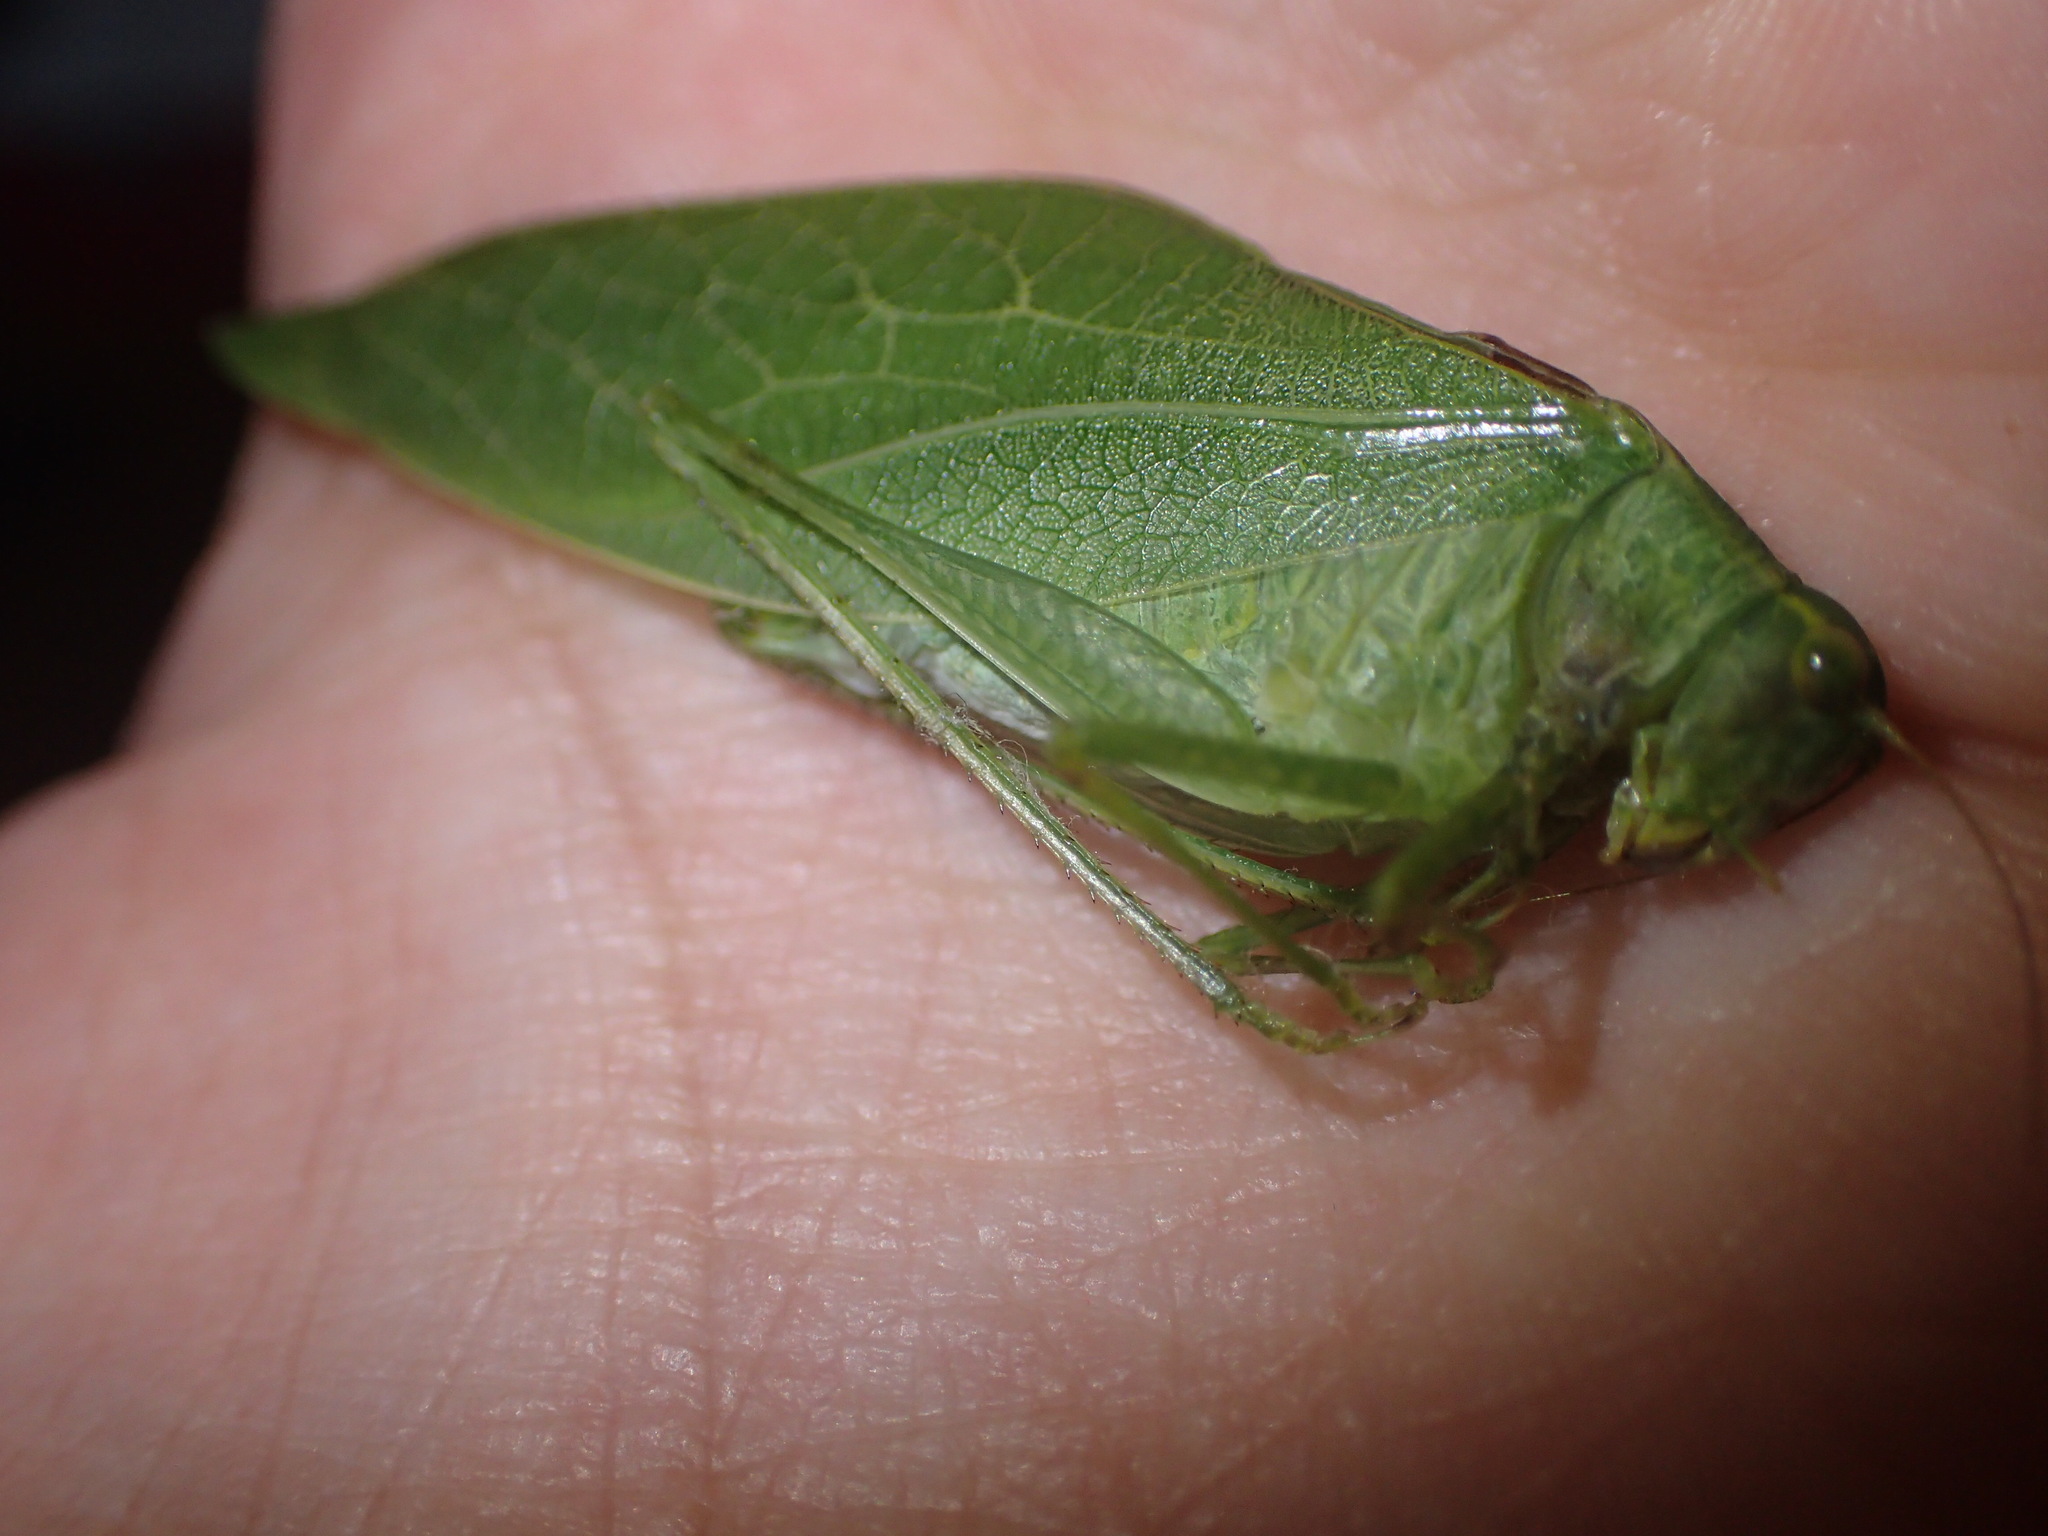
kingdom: Animalia
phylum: Arthropoda
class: Insecta
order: Orthoptera
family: Tettigoniidae
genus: Microcentrum
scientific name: Microcentrum retinerve
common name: Angular-winged katydid
